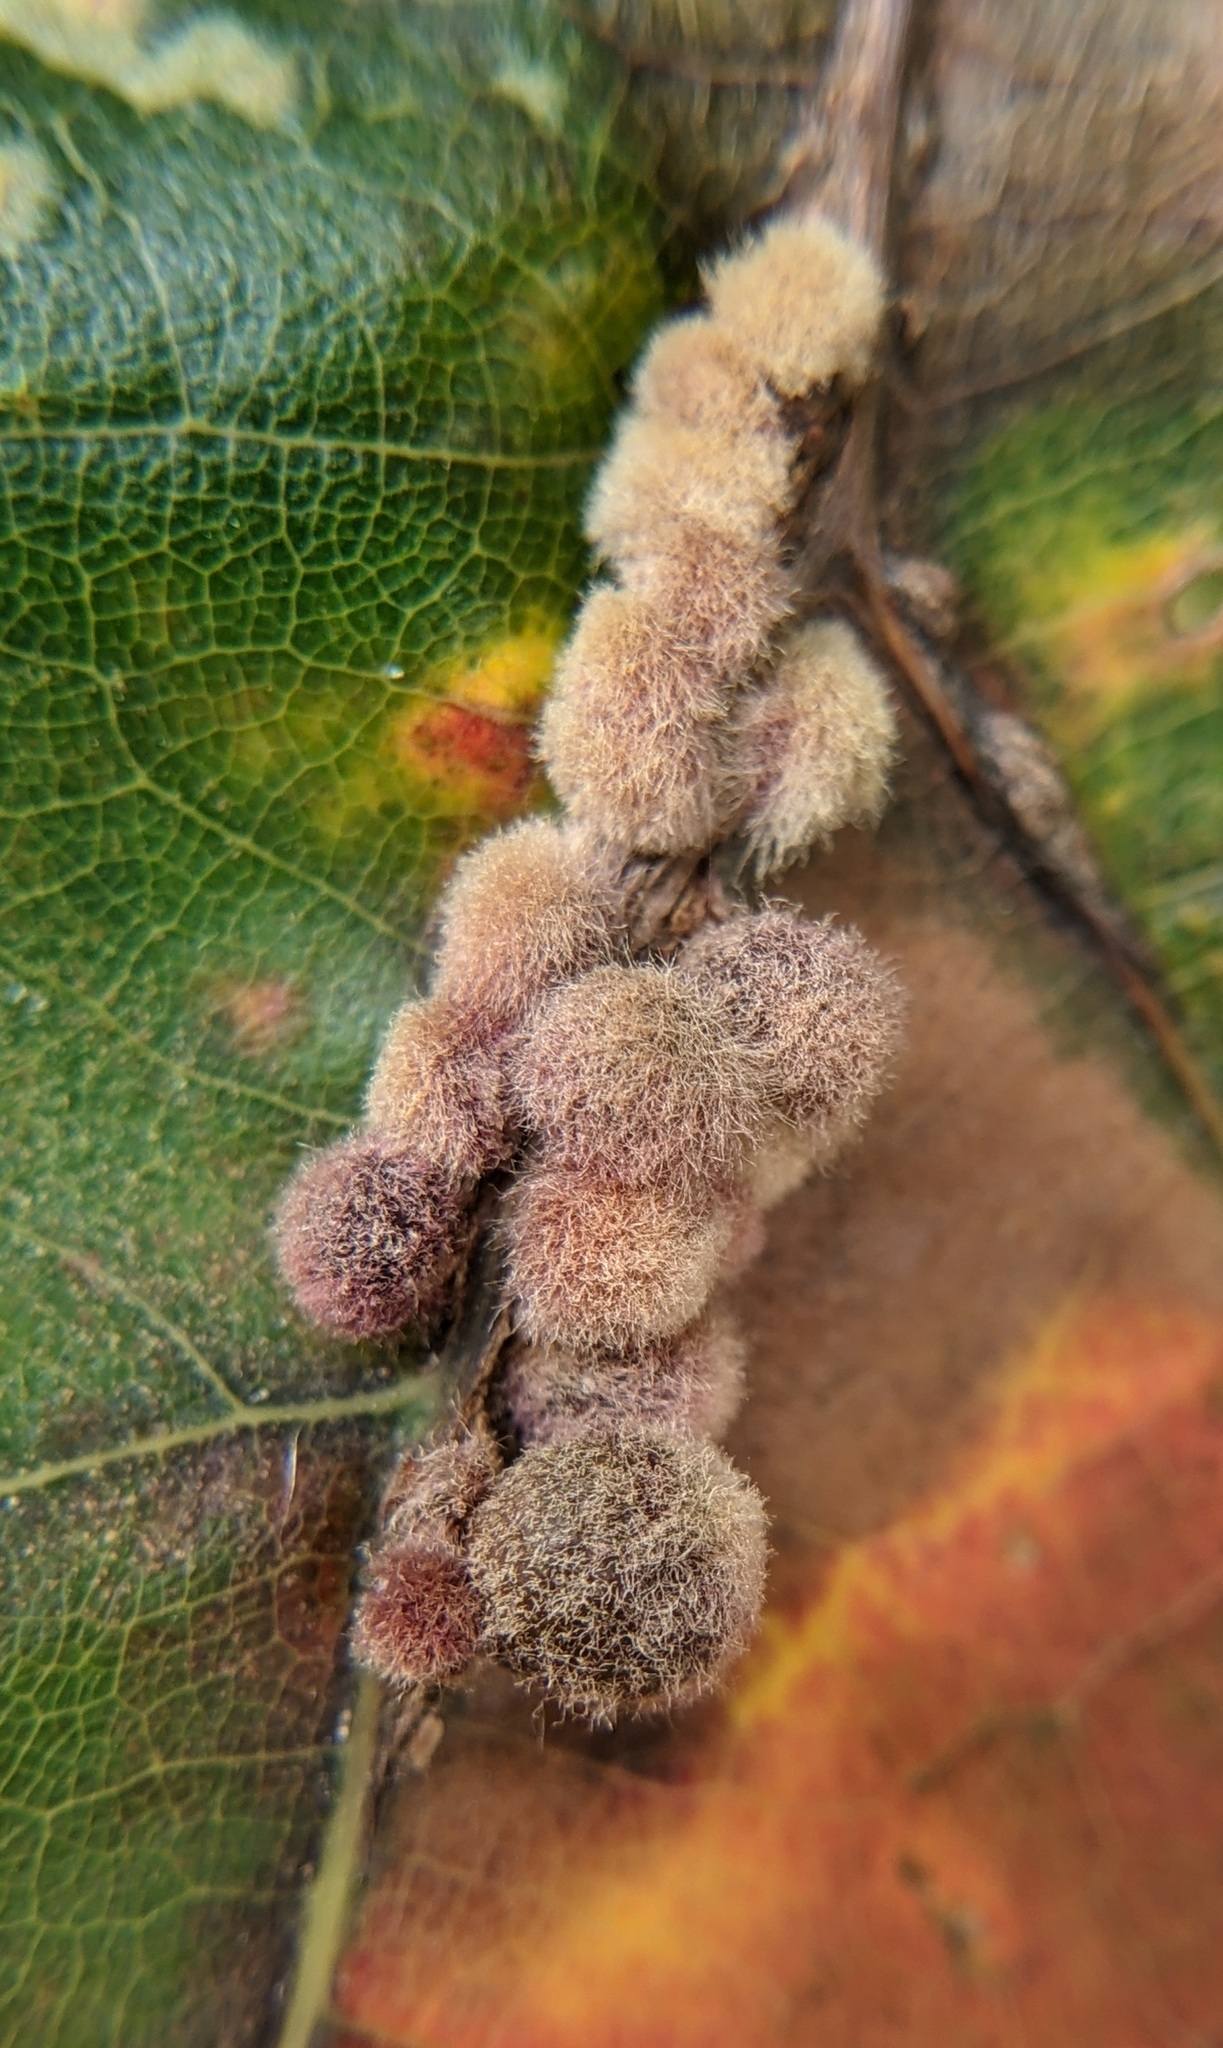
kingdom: Animalia
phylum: Arthropoda
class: Insecta
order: Hymenoptera
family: Cynipidae
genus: Callirhytis
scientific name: Callirhytis
